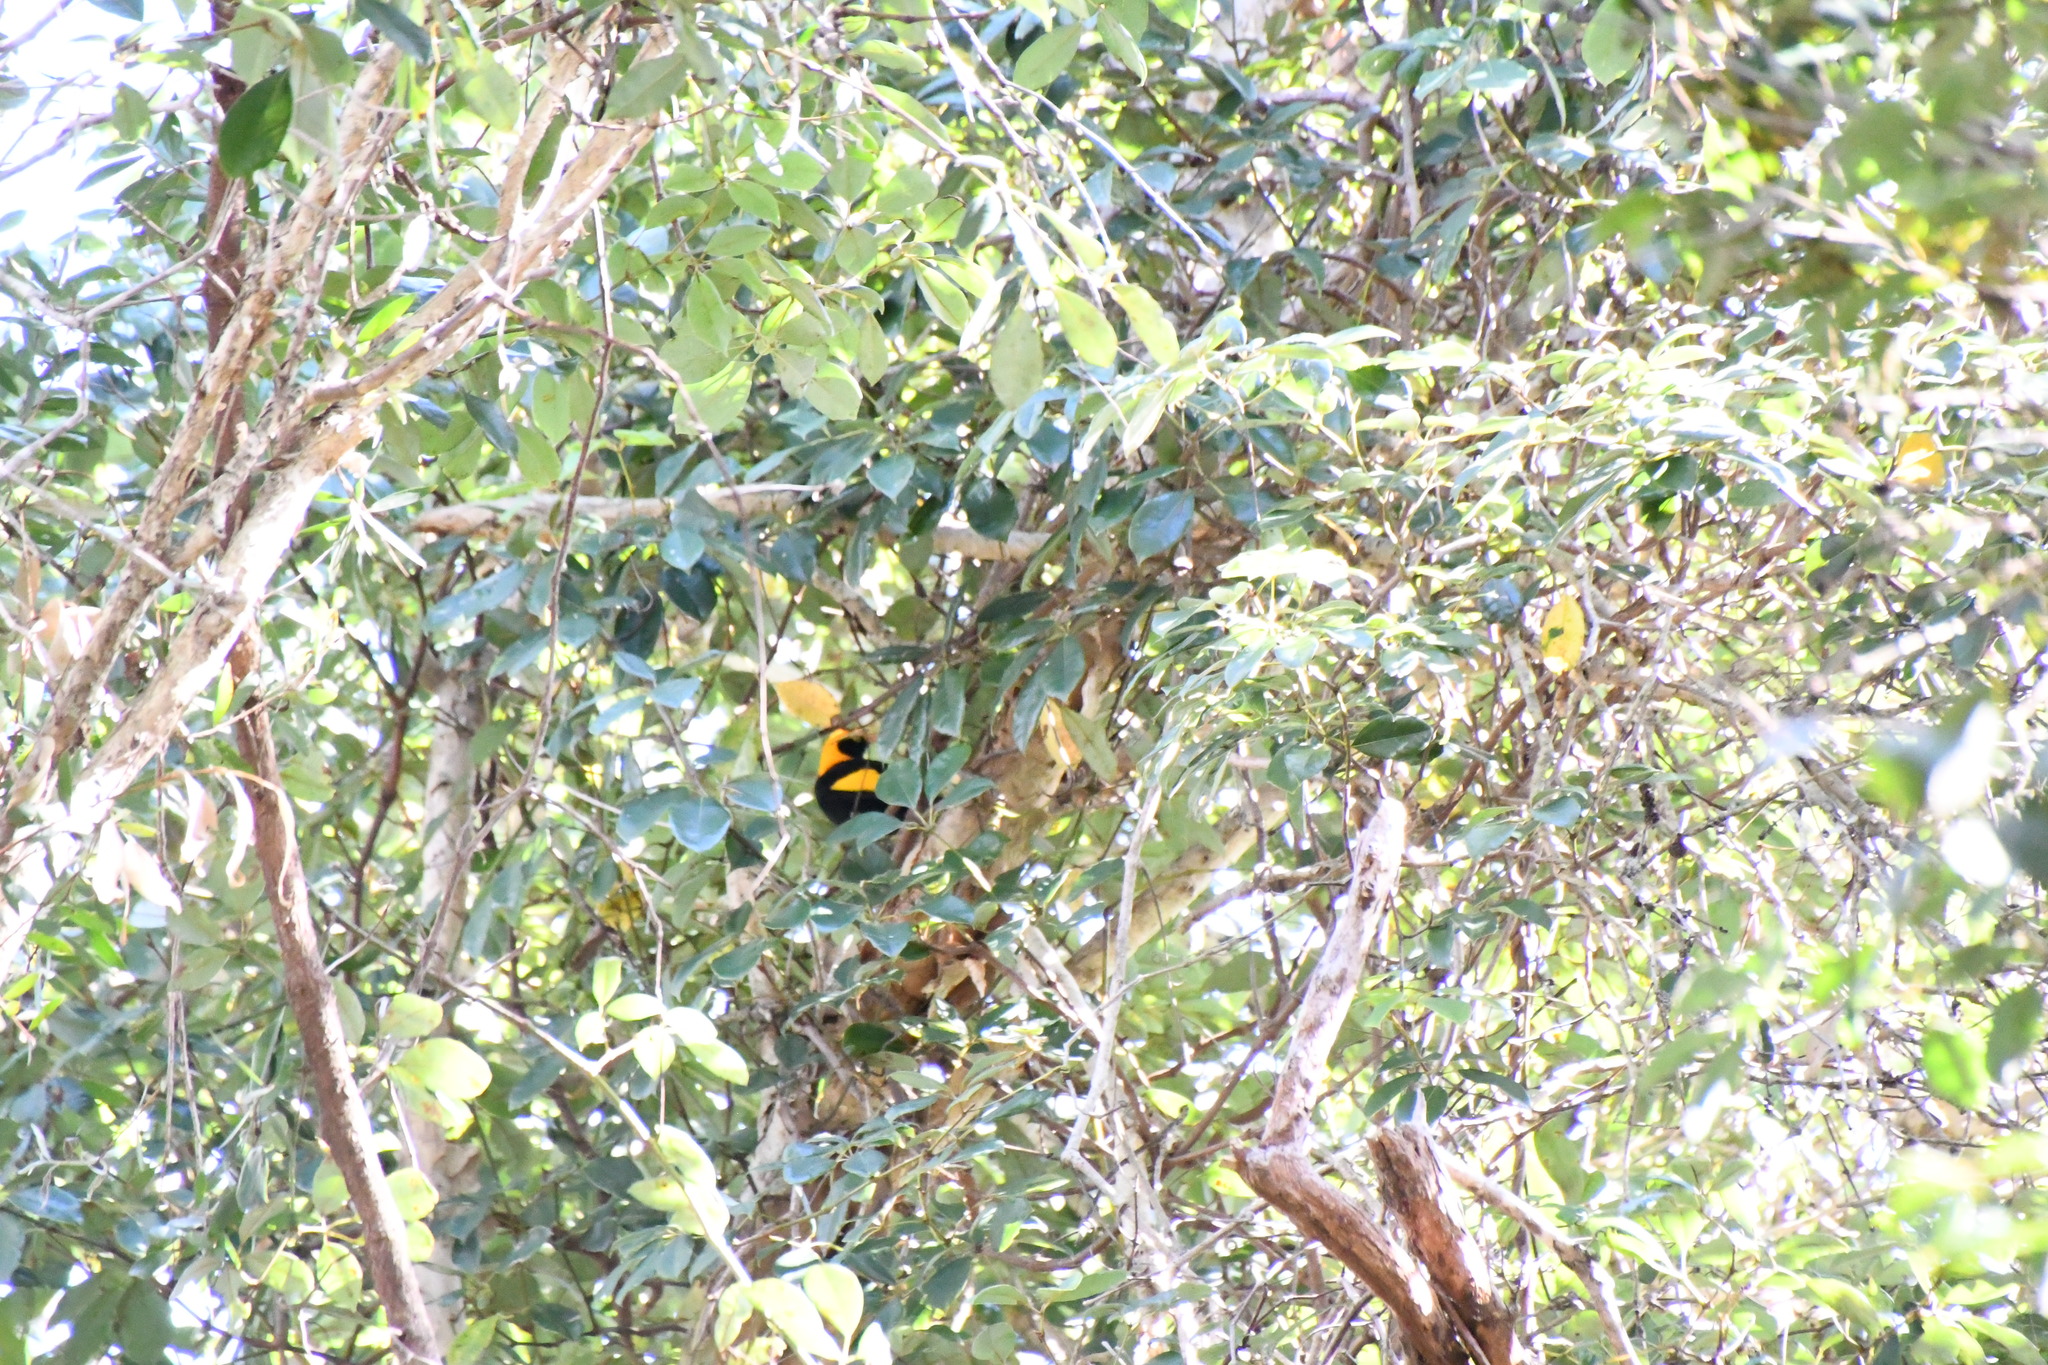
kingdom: Animalia
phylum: Chordata
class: Aves
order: Passeriformes
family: Ptilonorhynchidae
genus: Sericulus
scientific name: Sericulus chrysocephalus
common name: Regent bowerbird
